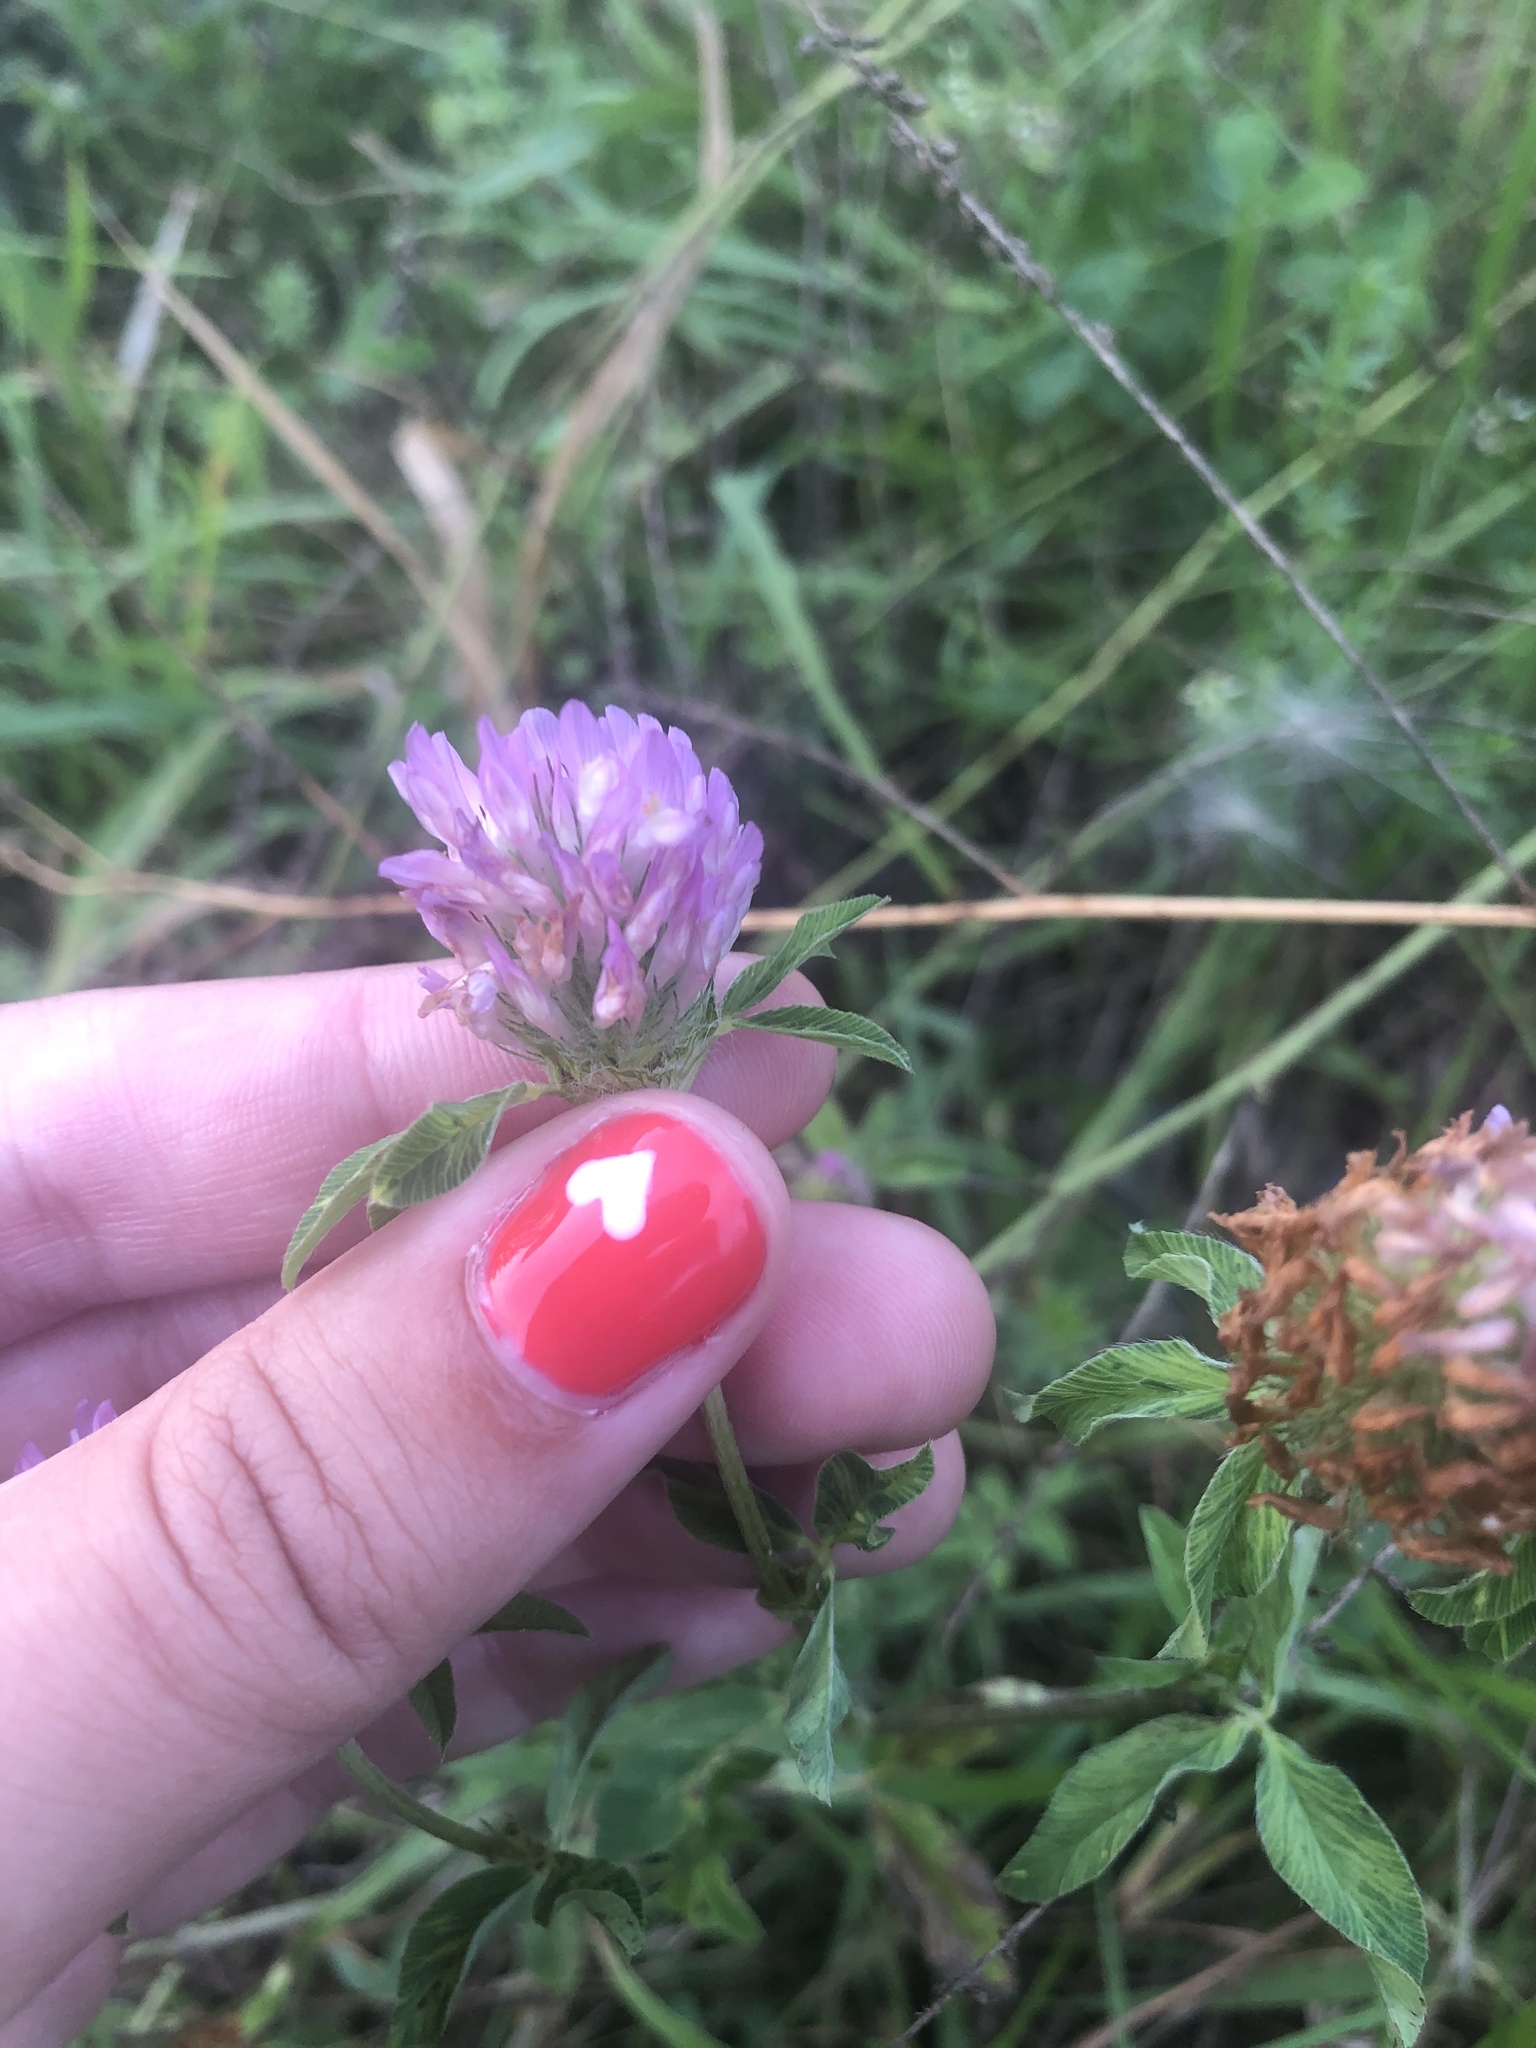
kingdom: Plantae
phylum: Tracheophyta
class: Magnoliopsida
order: Fabales
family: Fabaceae
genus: Trifolium
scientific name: Trifolium pratense
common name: Red clover
